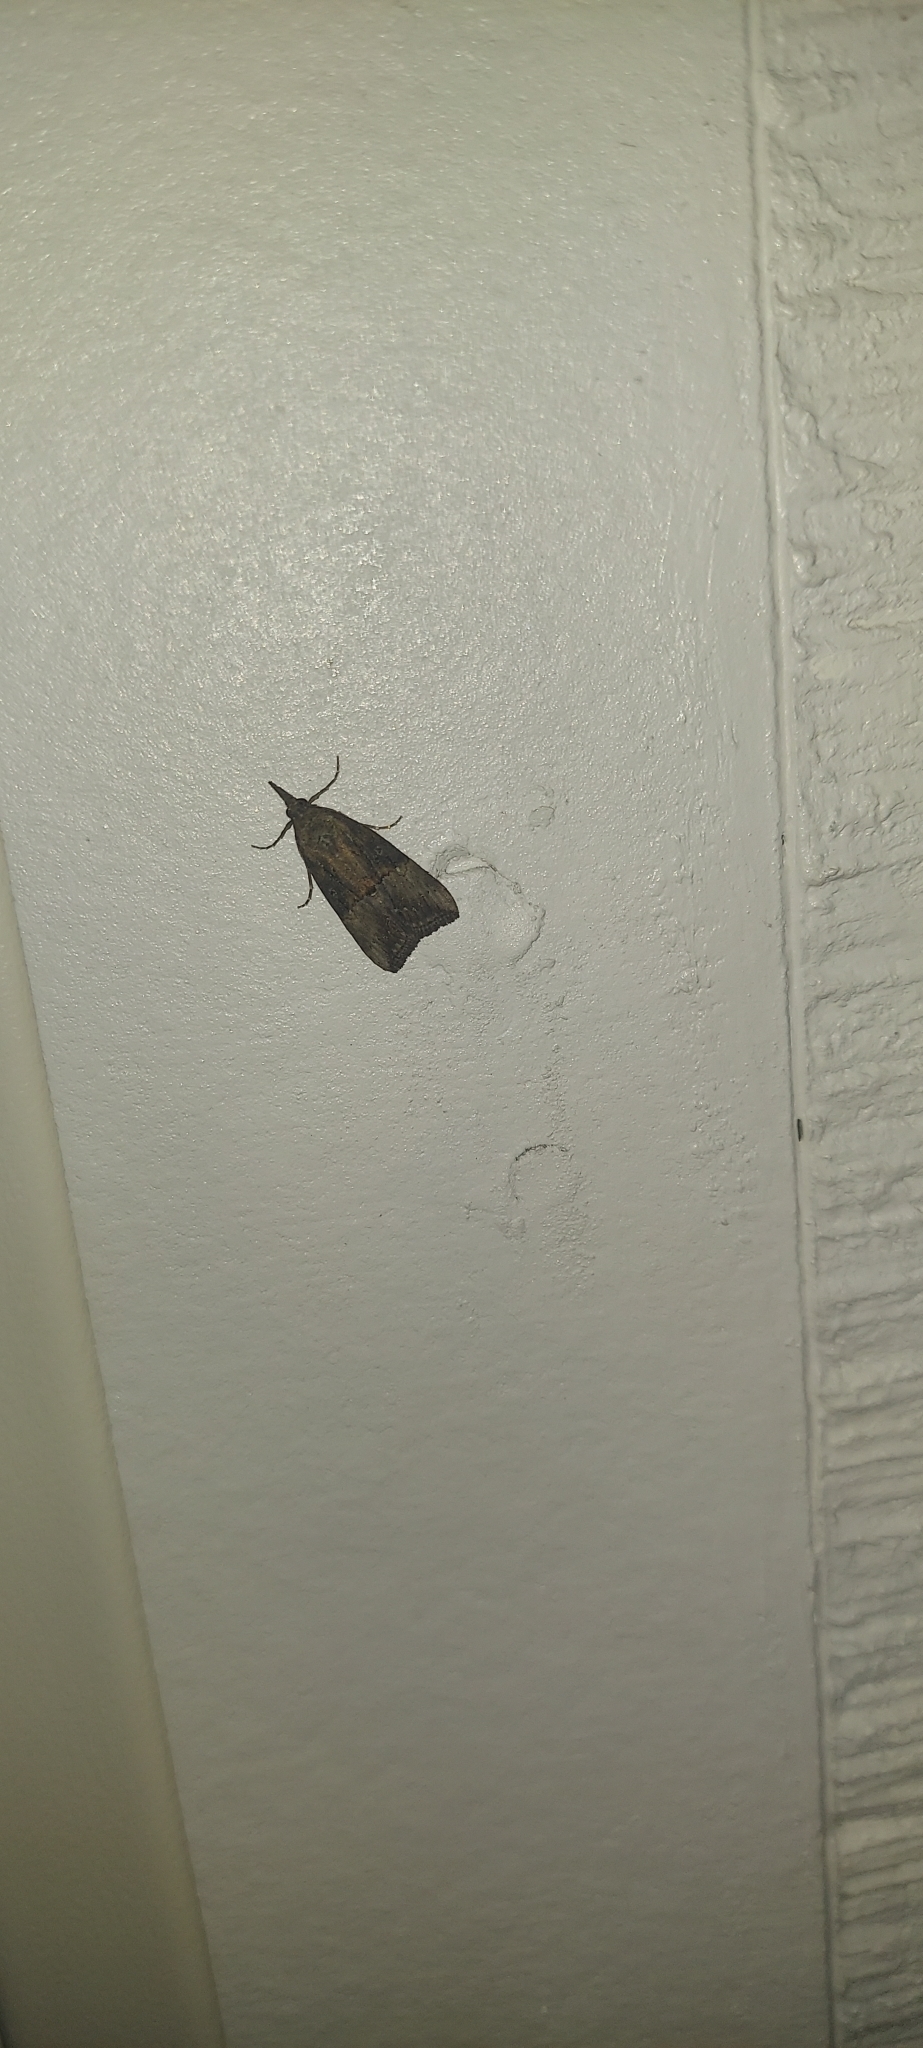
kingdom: Animalia
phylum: Arthropoda
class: Insecta
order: Lepidoptera
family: Erebidae
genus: Hypena
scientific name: Hypena scabra
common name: Green cloverworm
